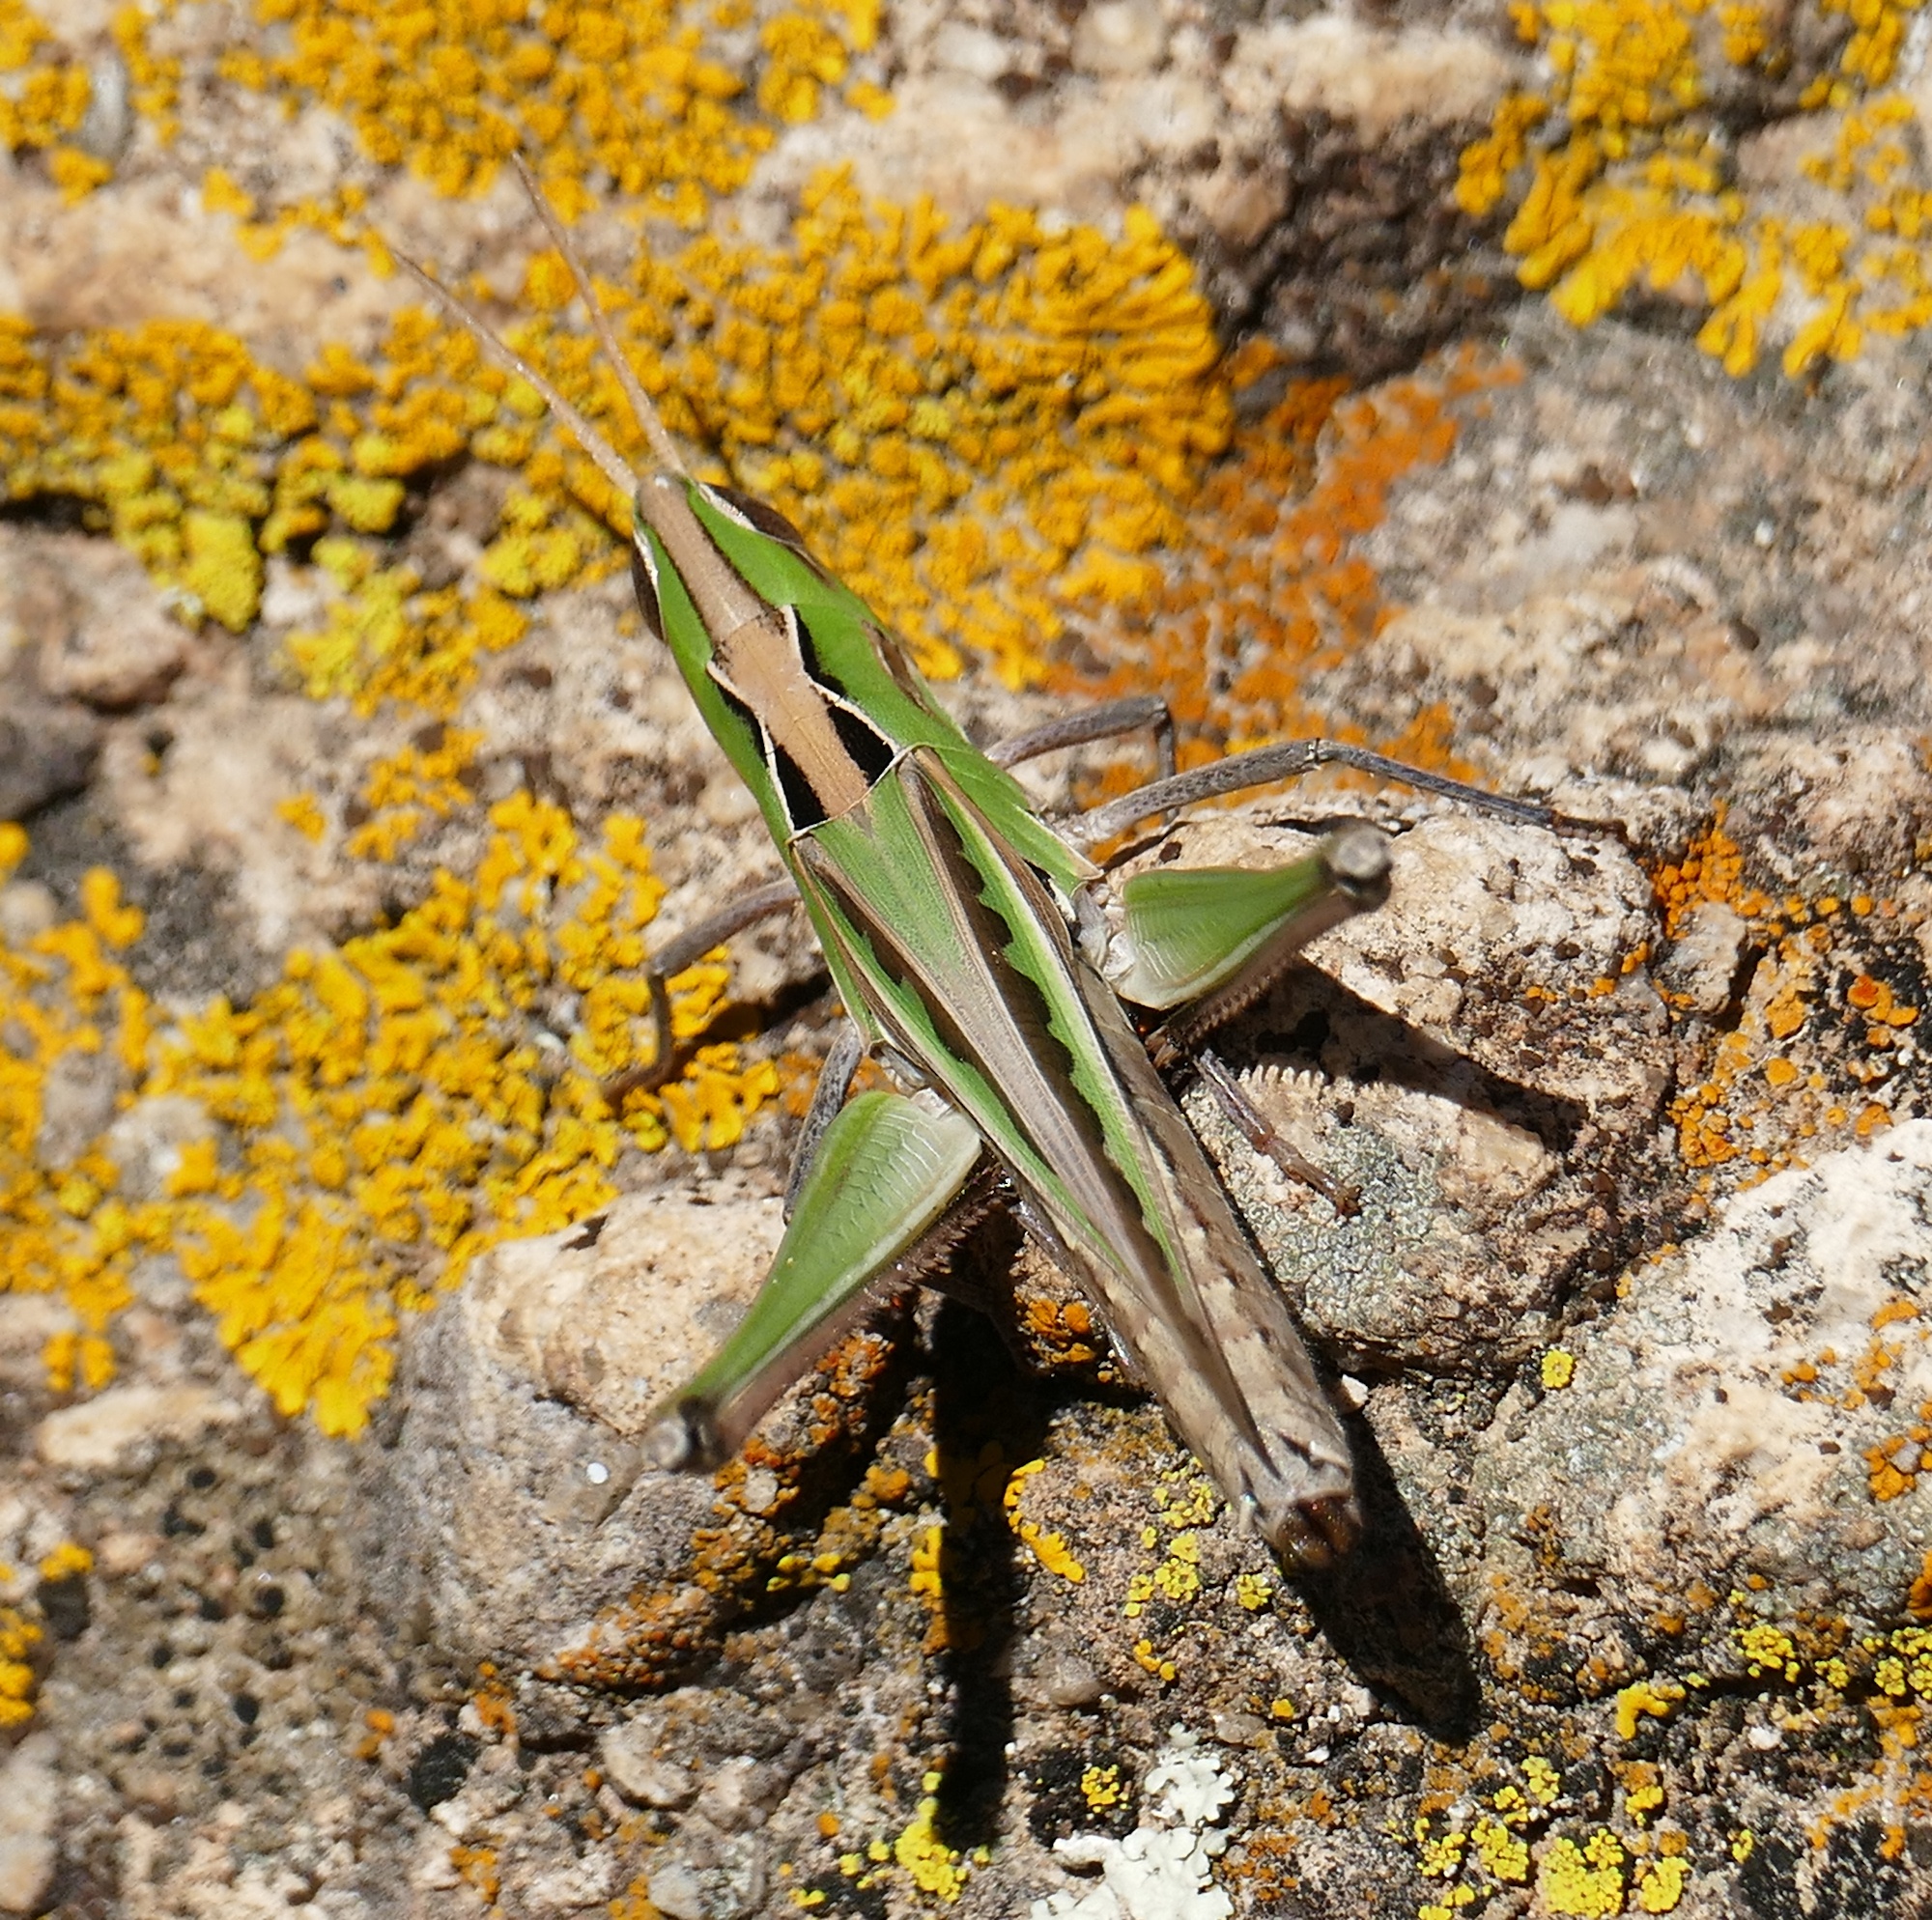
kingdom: Animalia
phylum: Arthropoda
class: Insecta
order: Orthoptera
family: Acrididae
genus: Syrbula
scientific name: Syrbula montezuma
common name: Montezuma's grasshopper
